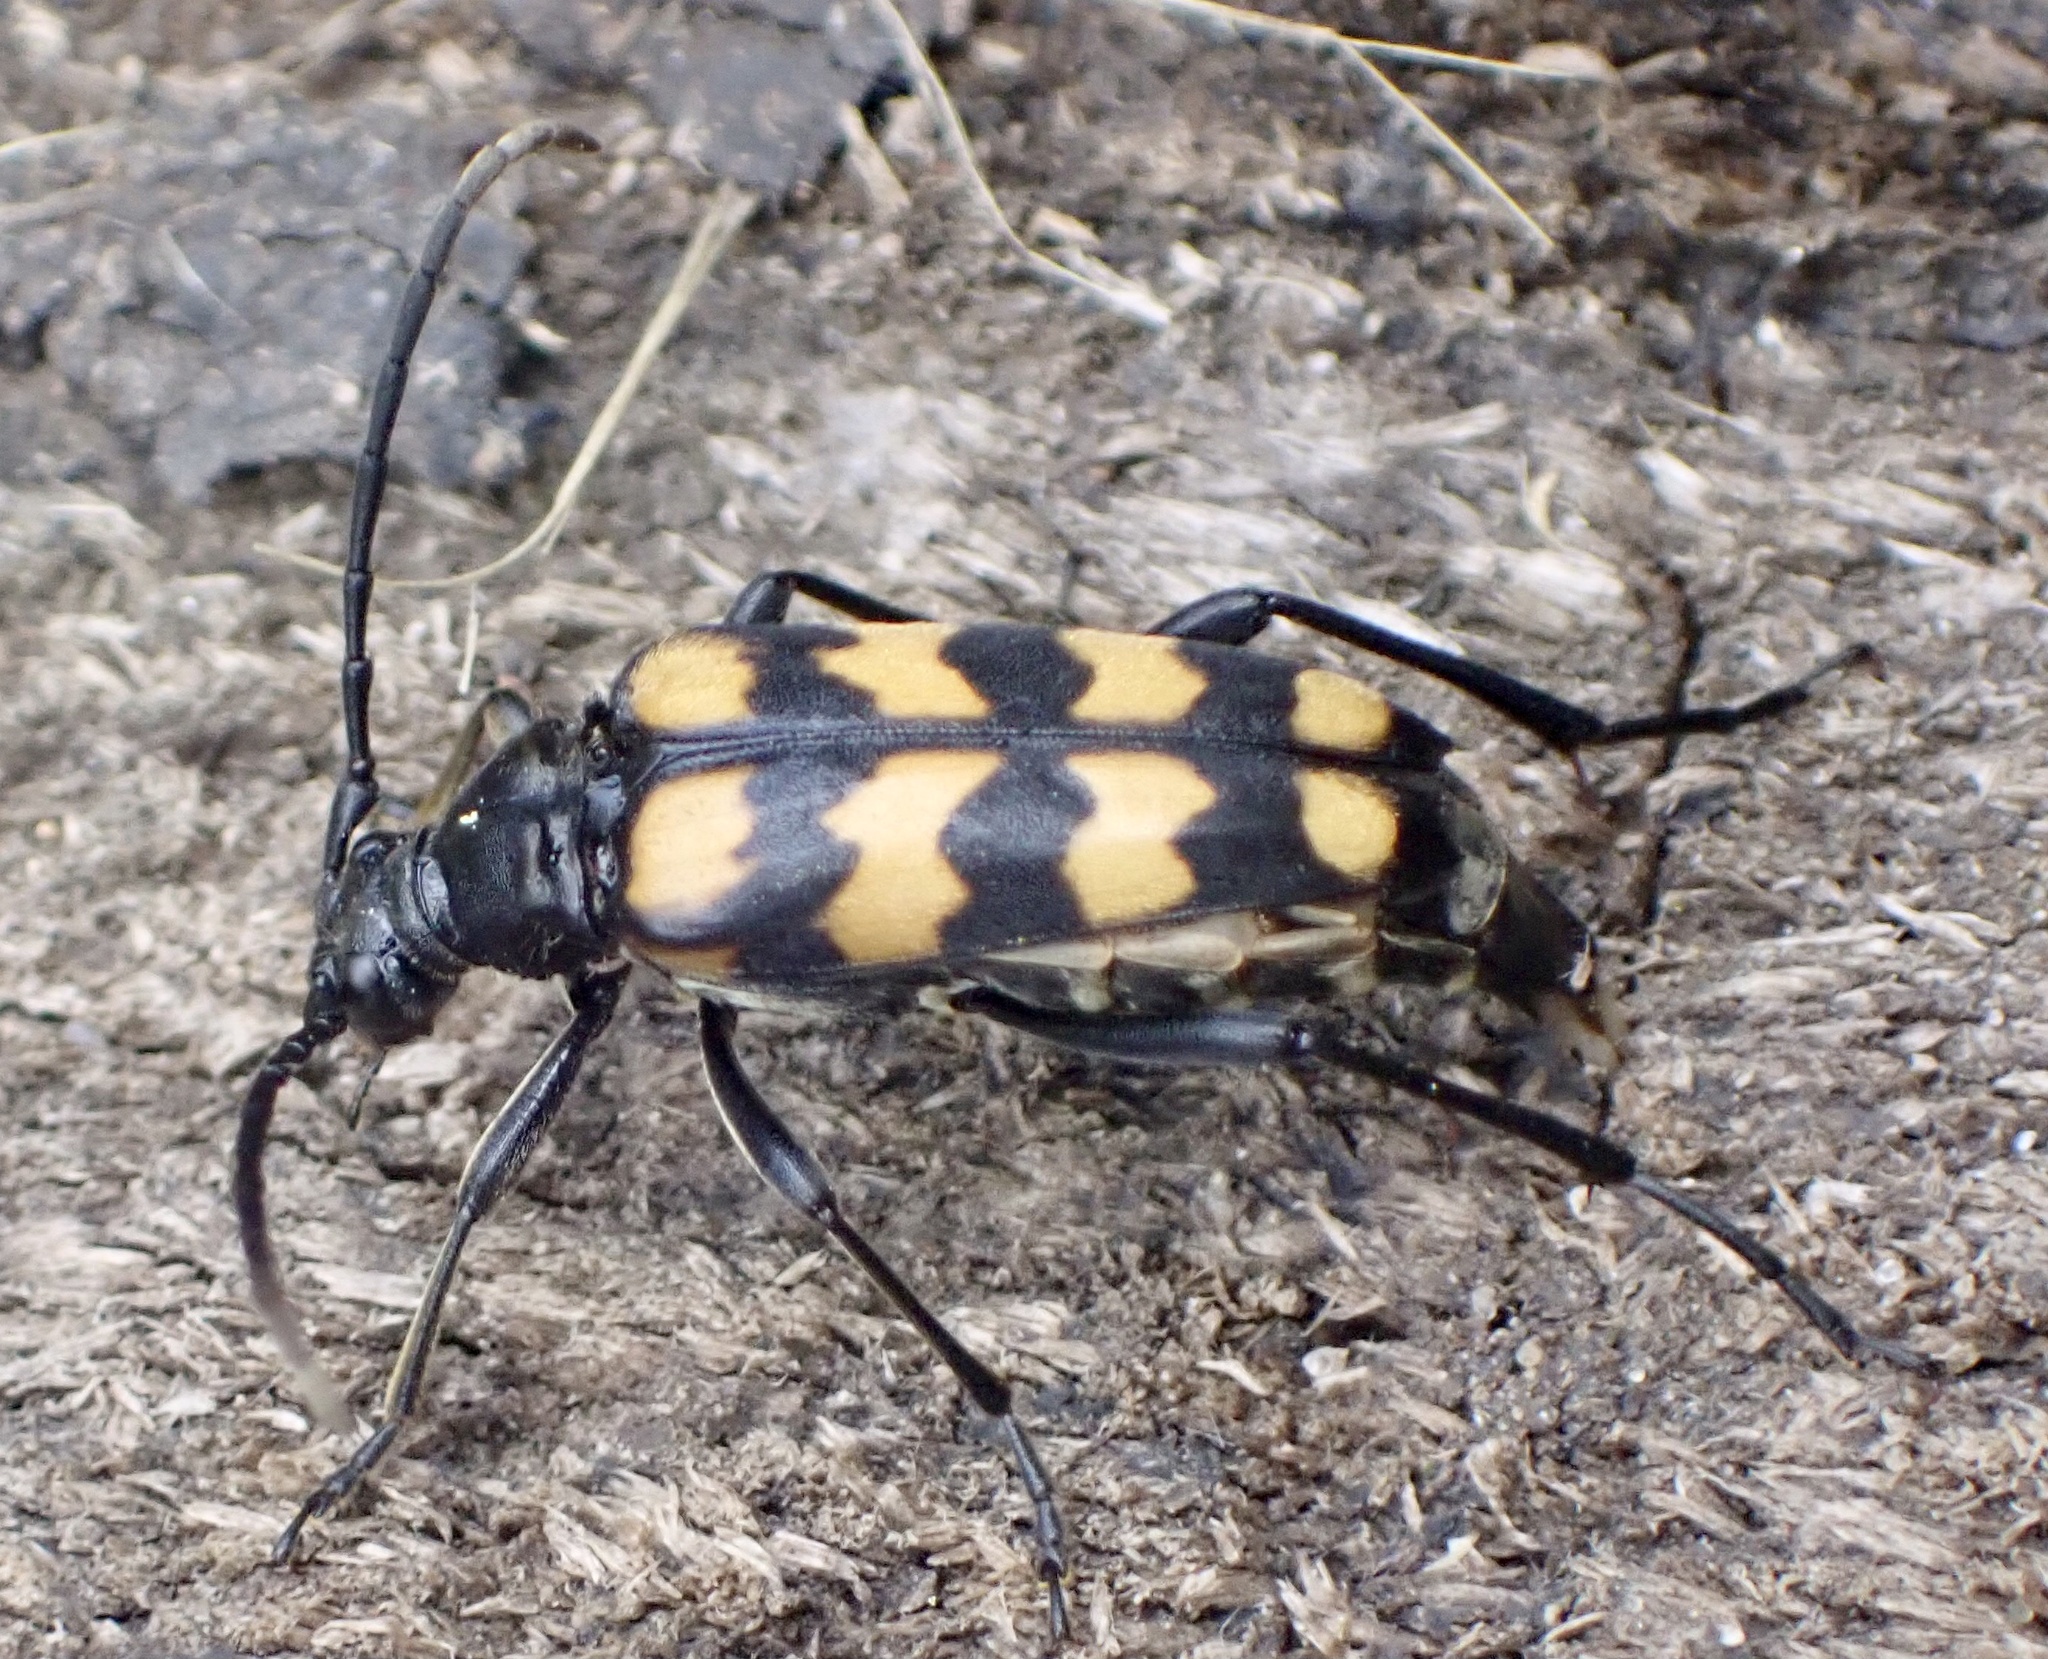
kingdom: Animalia
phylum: Arthropoda
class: Insecta
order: Coleoptera
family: Cerambycidae
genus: Leptura
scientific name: Leptura quadrifasciata
